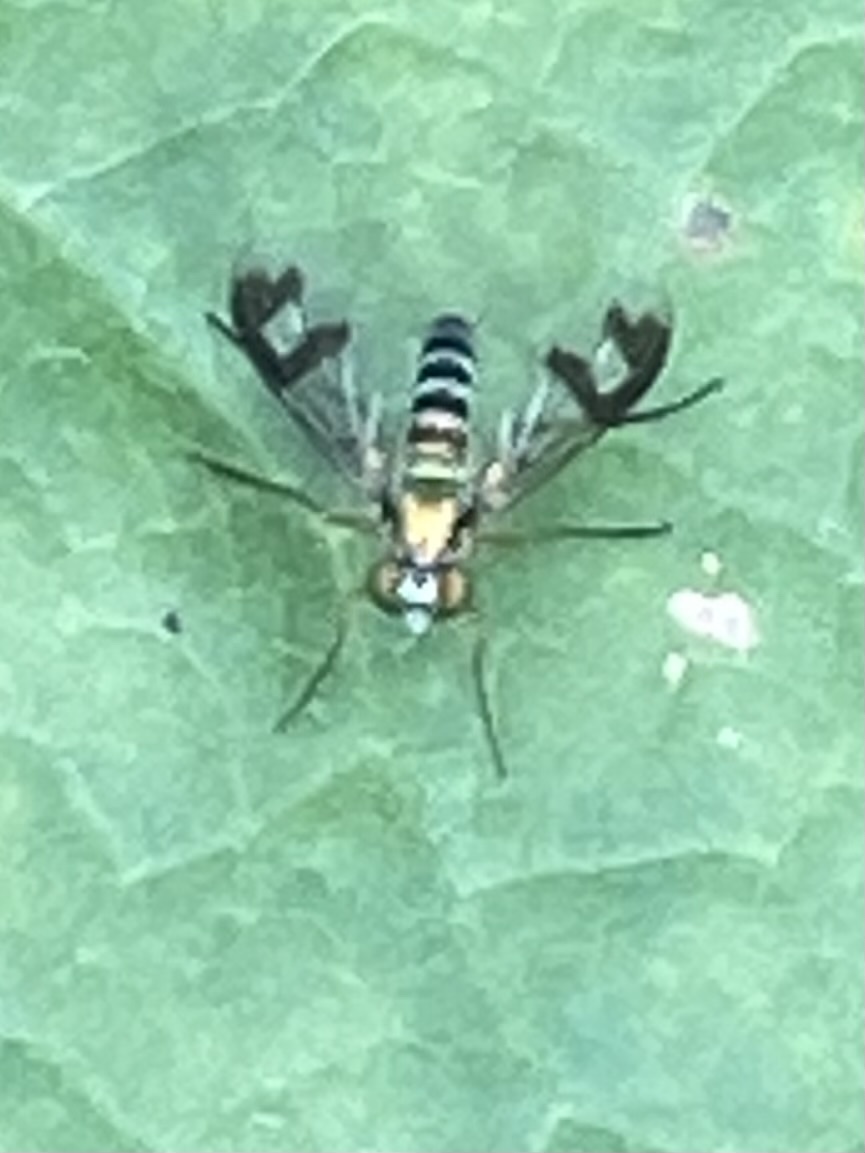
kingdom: Animalia
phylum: Arthropoda
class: Insecta
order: Diptera
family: Dolichopodidae
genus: Austrosciapus
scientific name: Austrosciapus proximus
